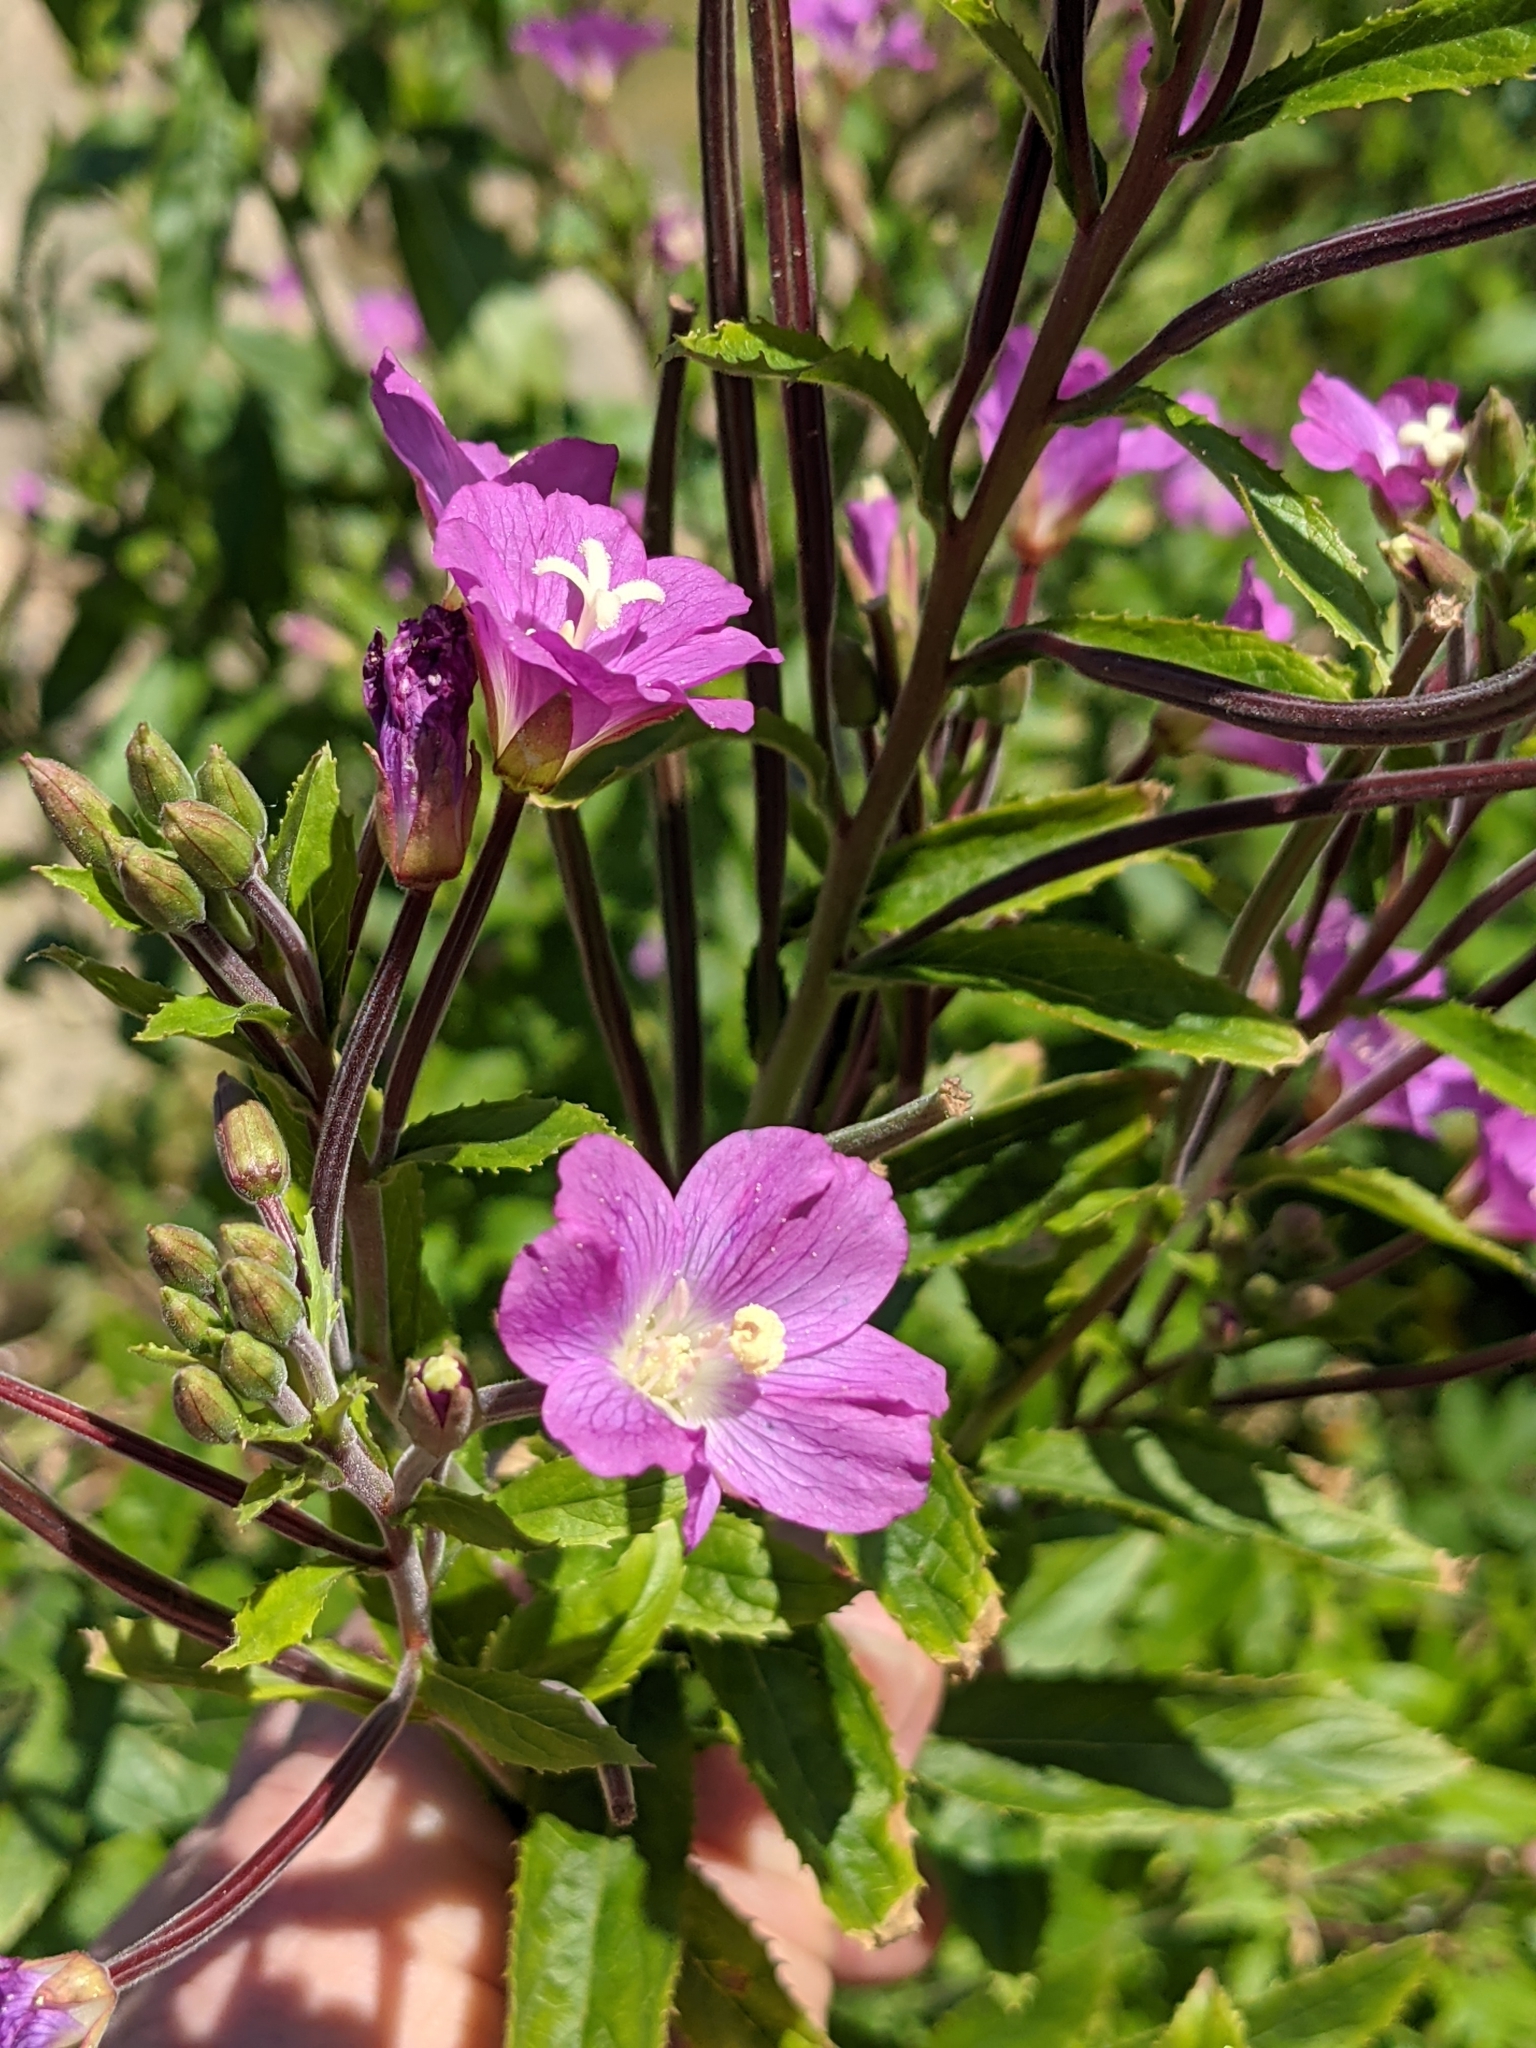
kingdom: Plantae
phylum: Tracheophyta
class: Magnoliopsida
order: Myrtales
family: Onagraceae
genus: Epilobium
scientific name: Epilobium hirsutum
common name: Great willowherb
